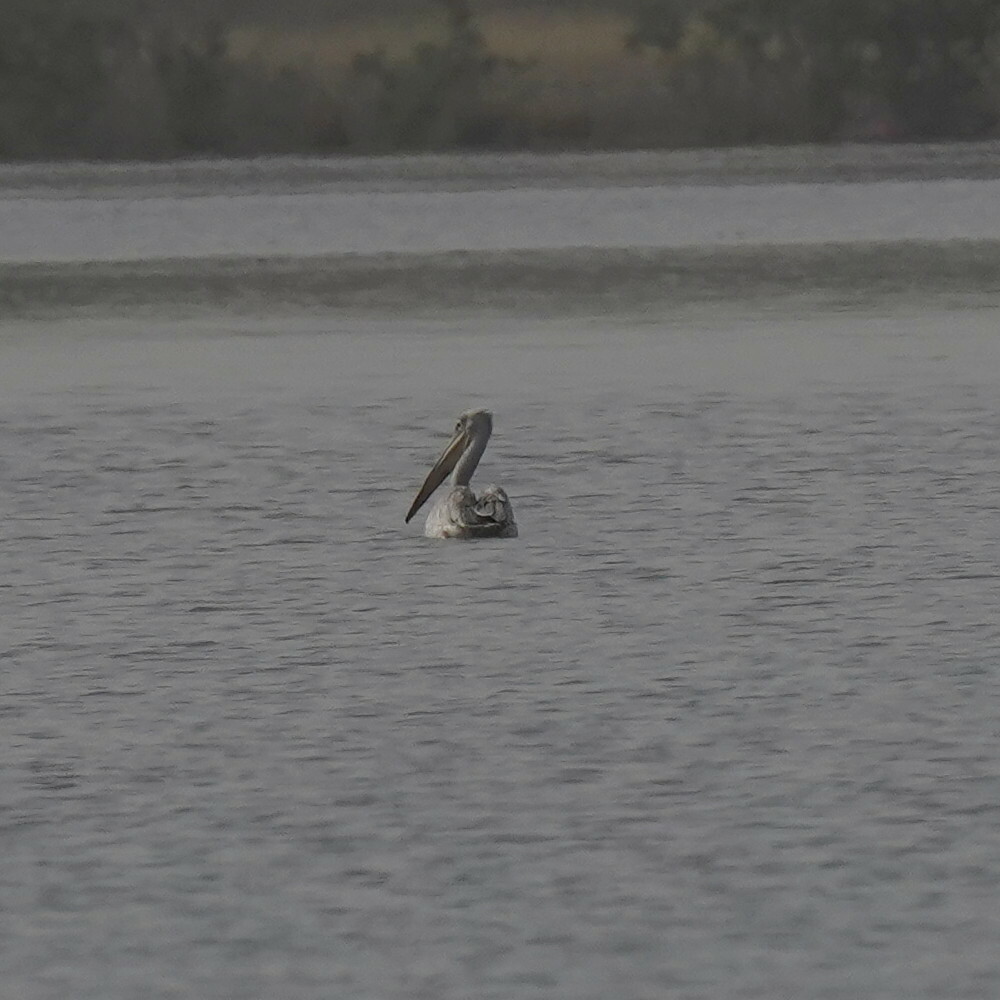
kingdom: Animalia
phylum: Chordata
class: Aves
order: Pelecaniformes
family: Pelecanidae
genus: Pelecanus
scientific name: Pelecanus rufescens
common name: Pink-backed pelican
